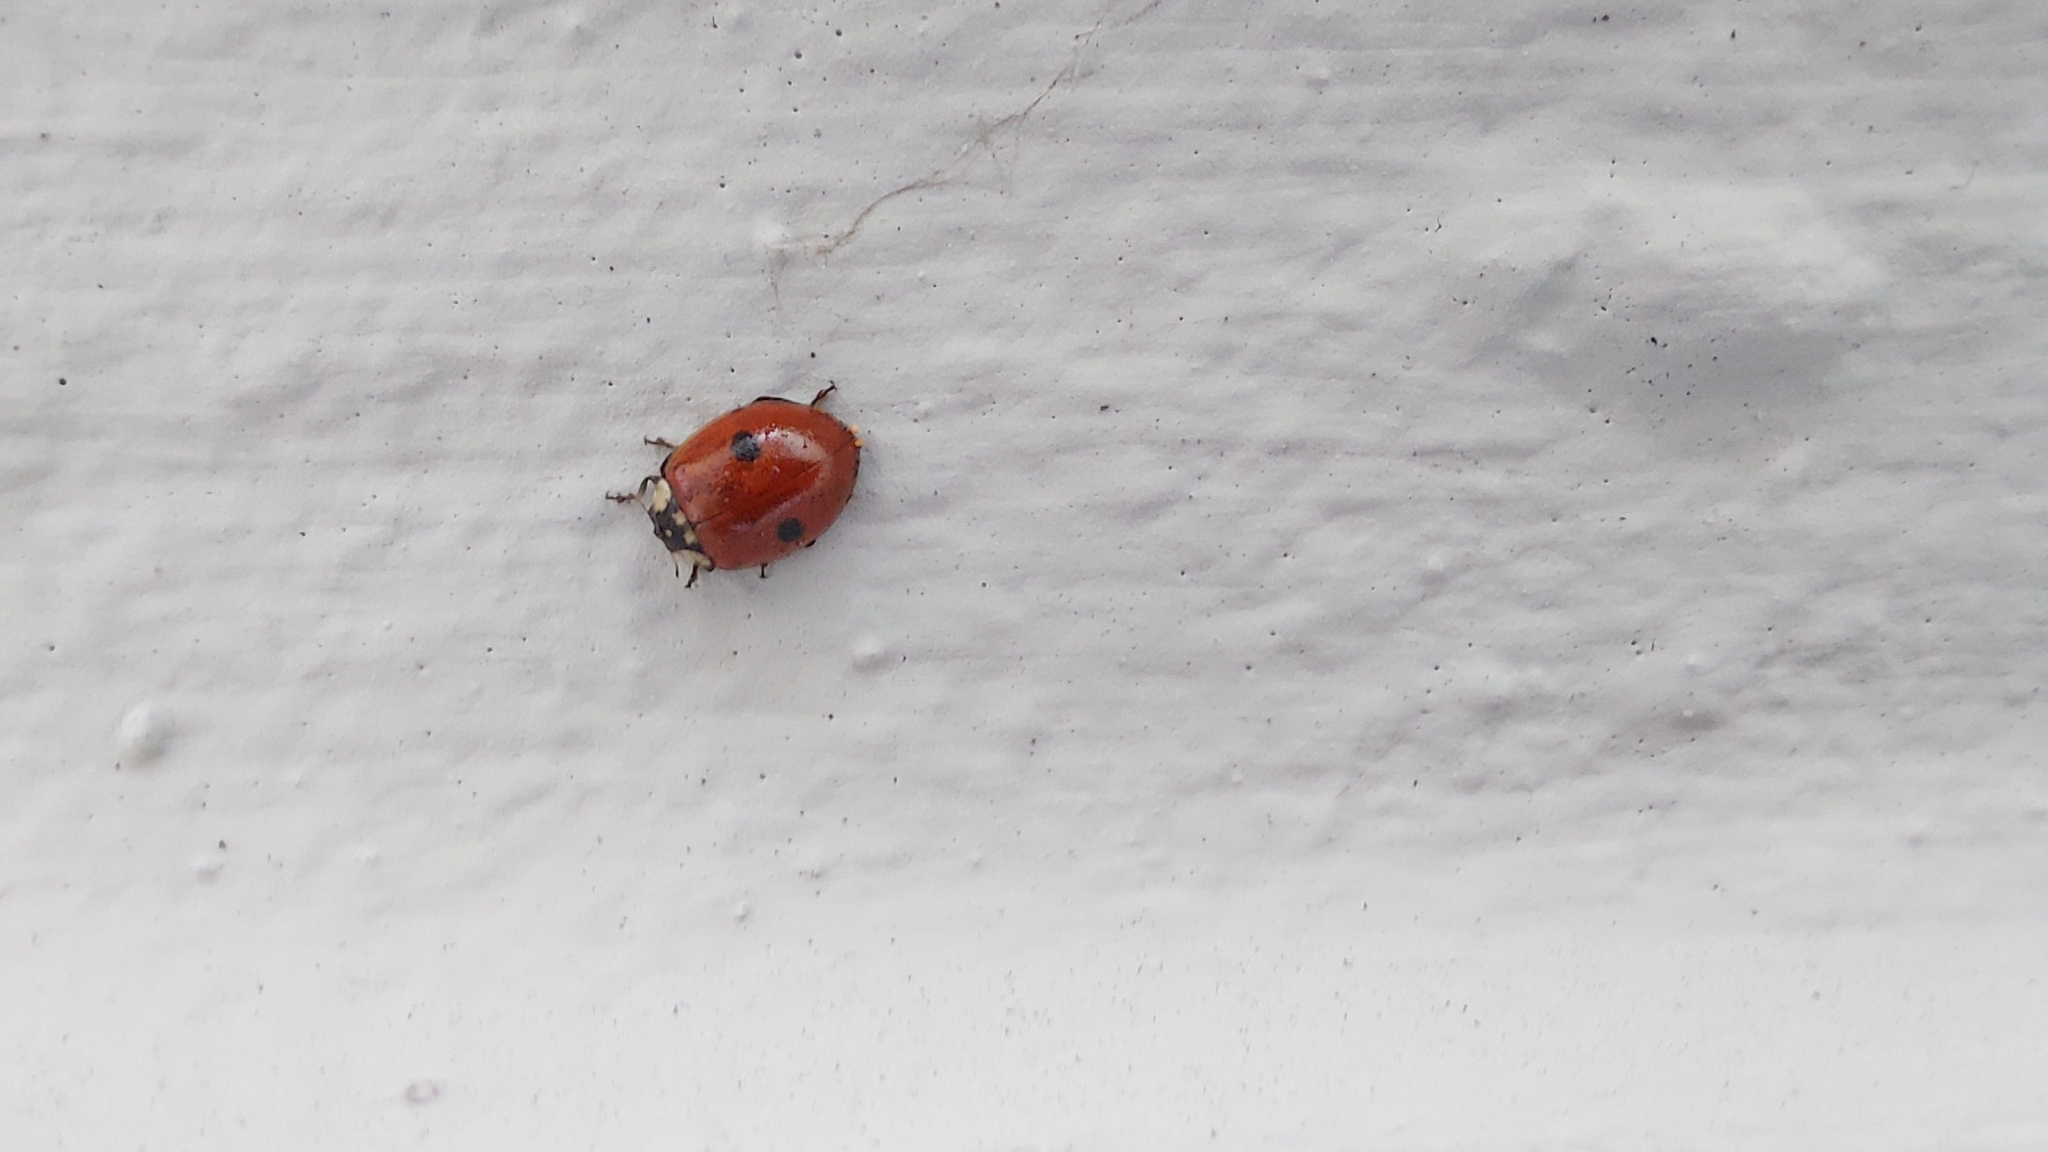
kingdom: Animalia
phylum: Arthropoda
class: Insecta
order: Coleoptera
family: Coccinellidae
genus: Adalia
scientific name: Adalia bipunctata
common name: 2-spot ladybird
